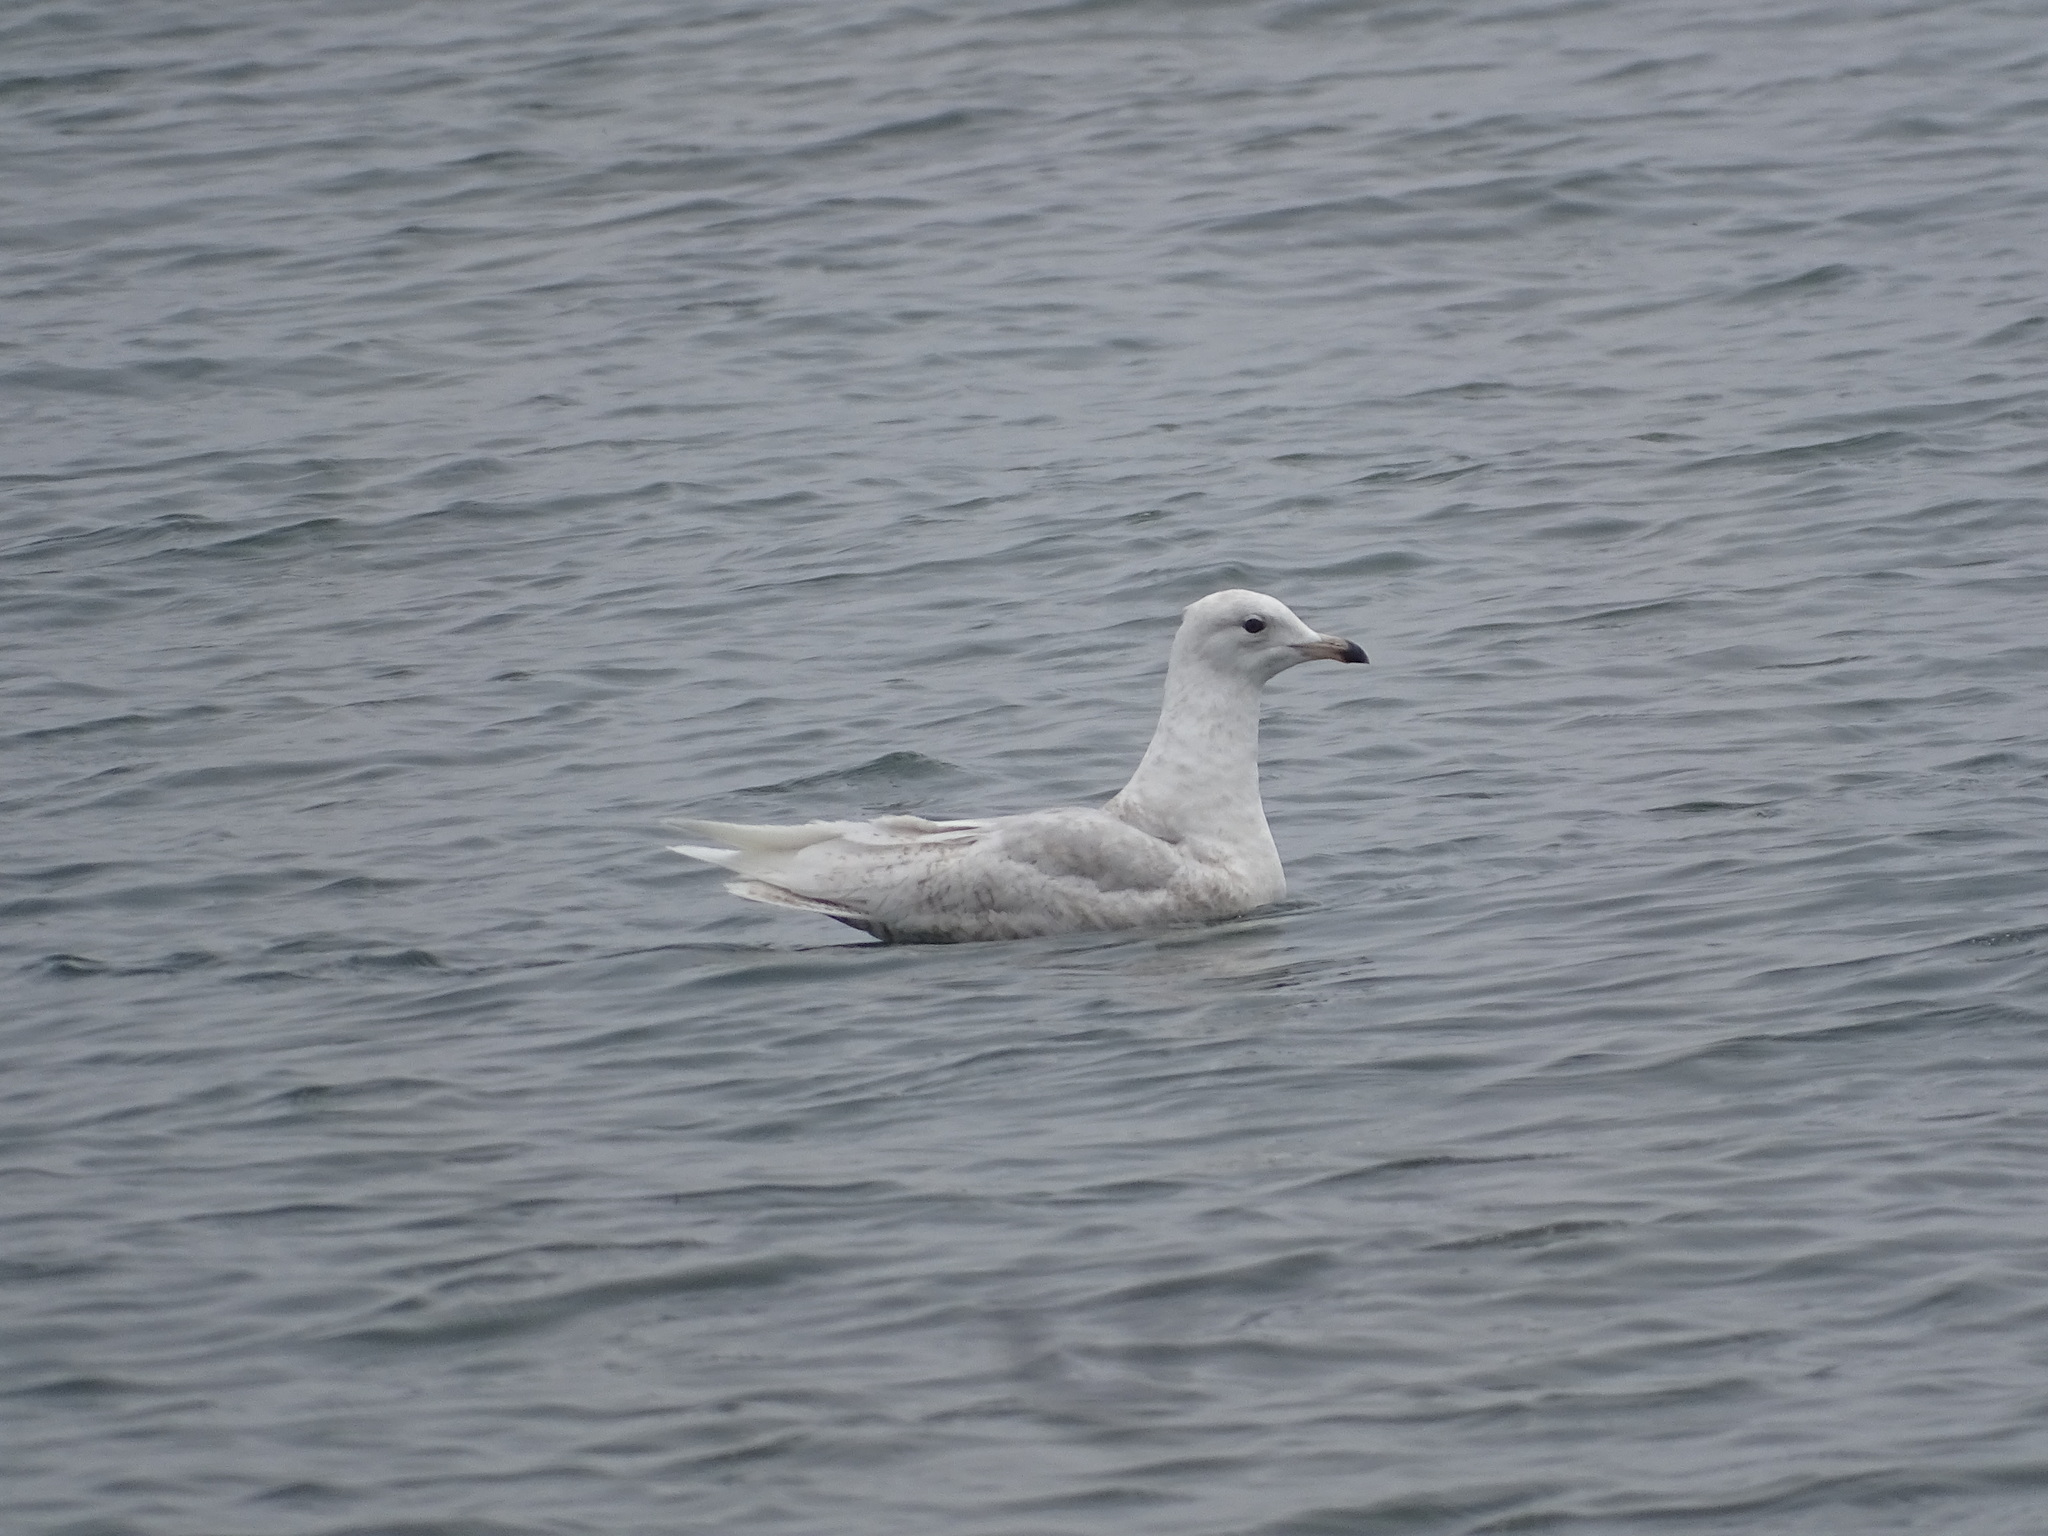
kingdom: Animalia
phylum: Chordata
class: Aves
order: Charadriiformes
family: Laridae
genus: Larus
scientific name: Larus glaucoides
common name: Iceland gull
